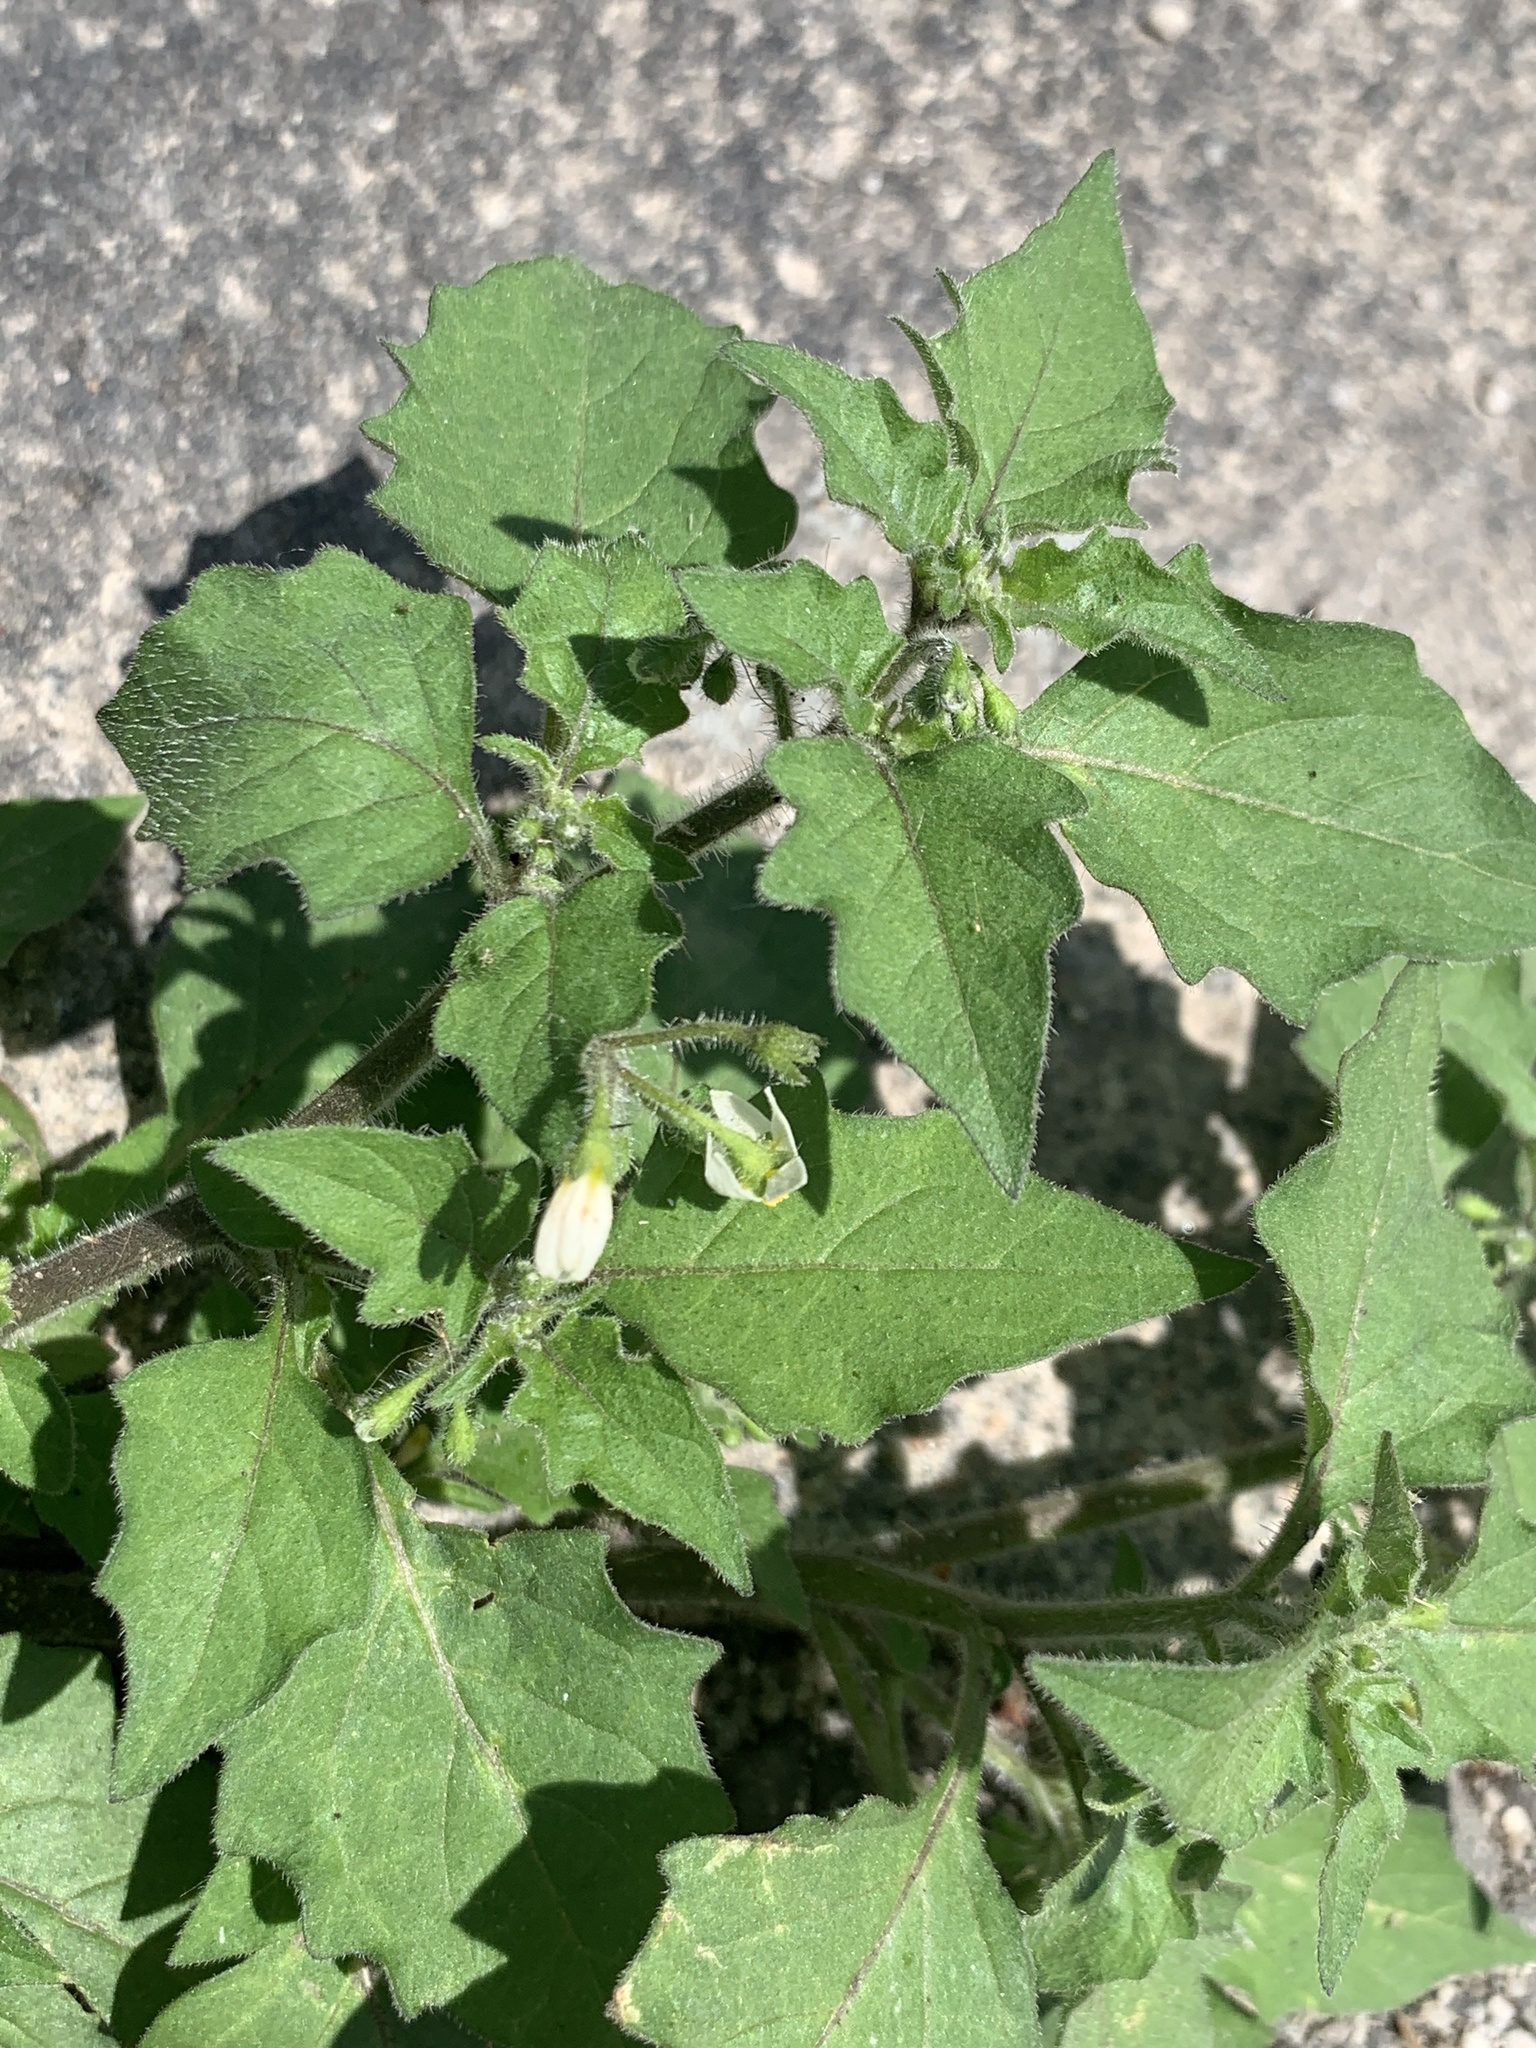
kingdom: Plantae
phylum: Tracheophyta
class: Magnoliopsida
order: Solanales
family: Solanaceae
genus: Solanum
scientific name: Solanum nigrum
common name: Black nightshade
